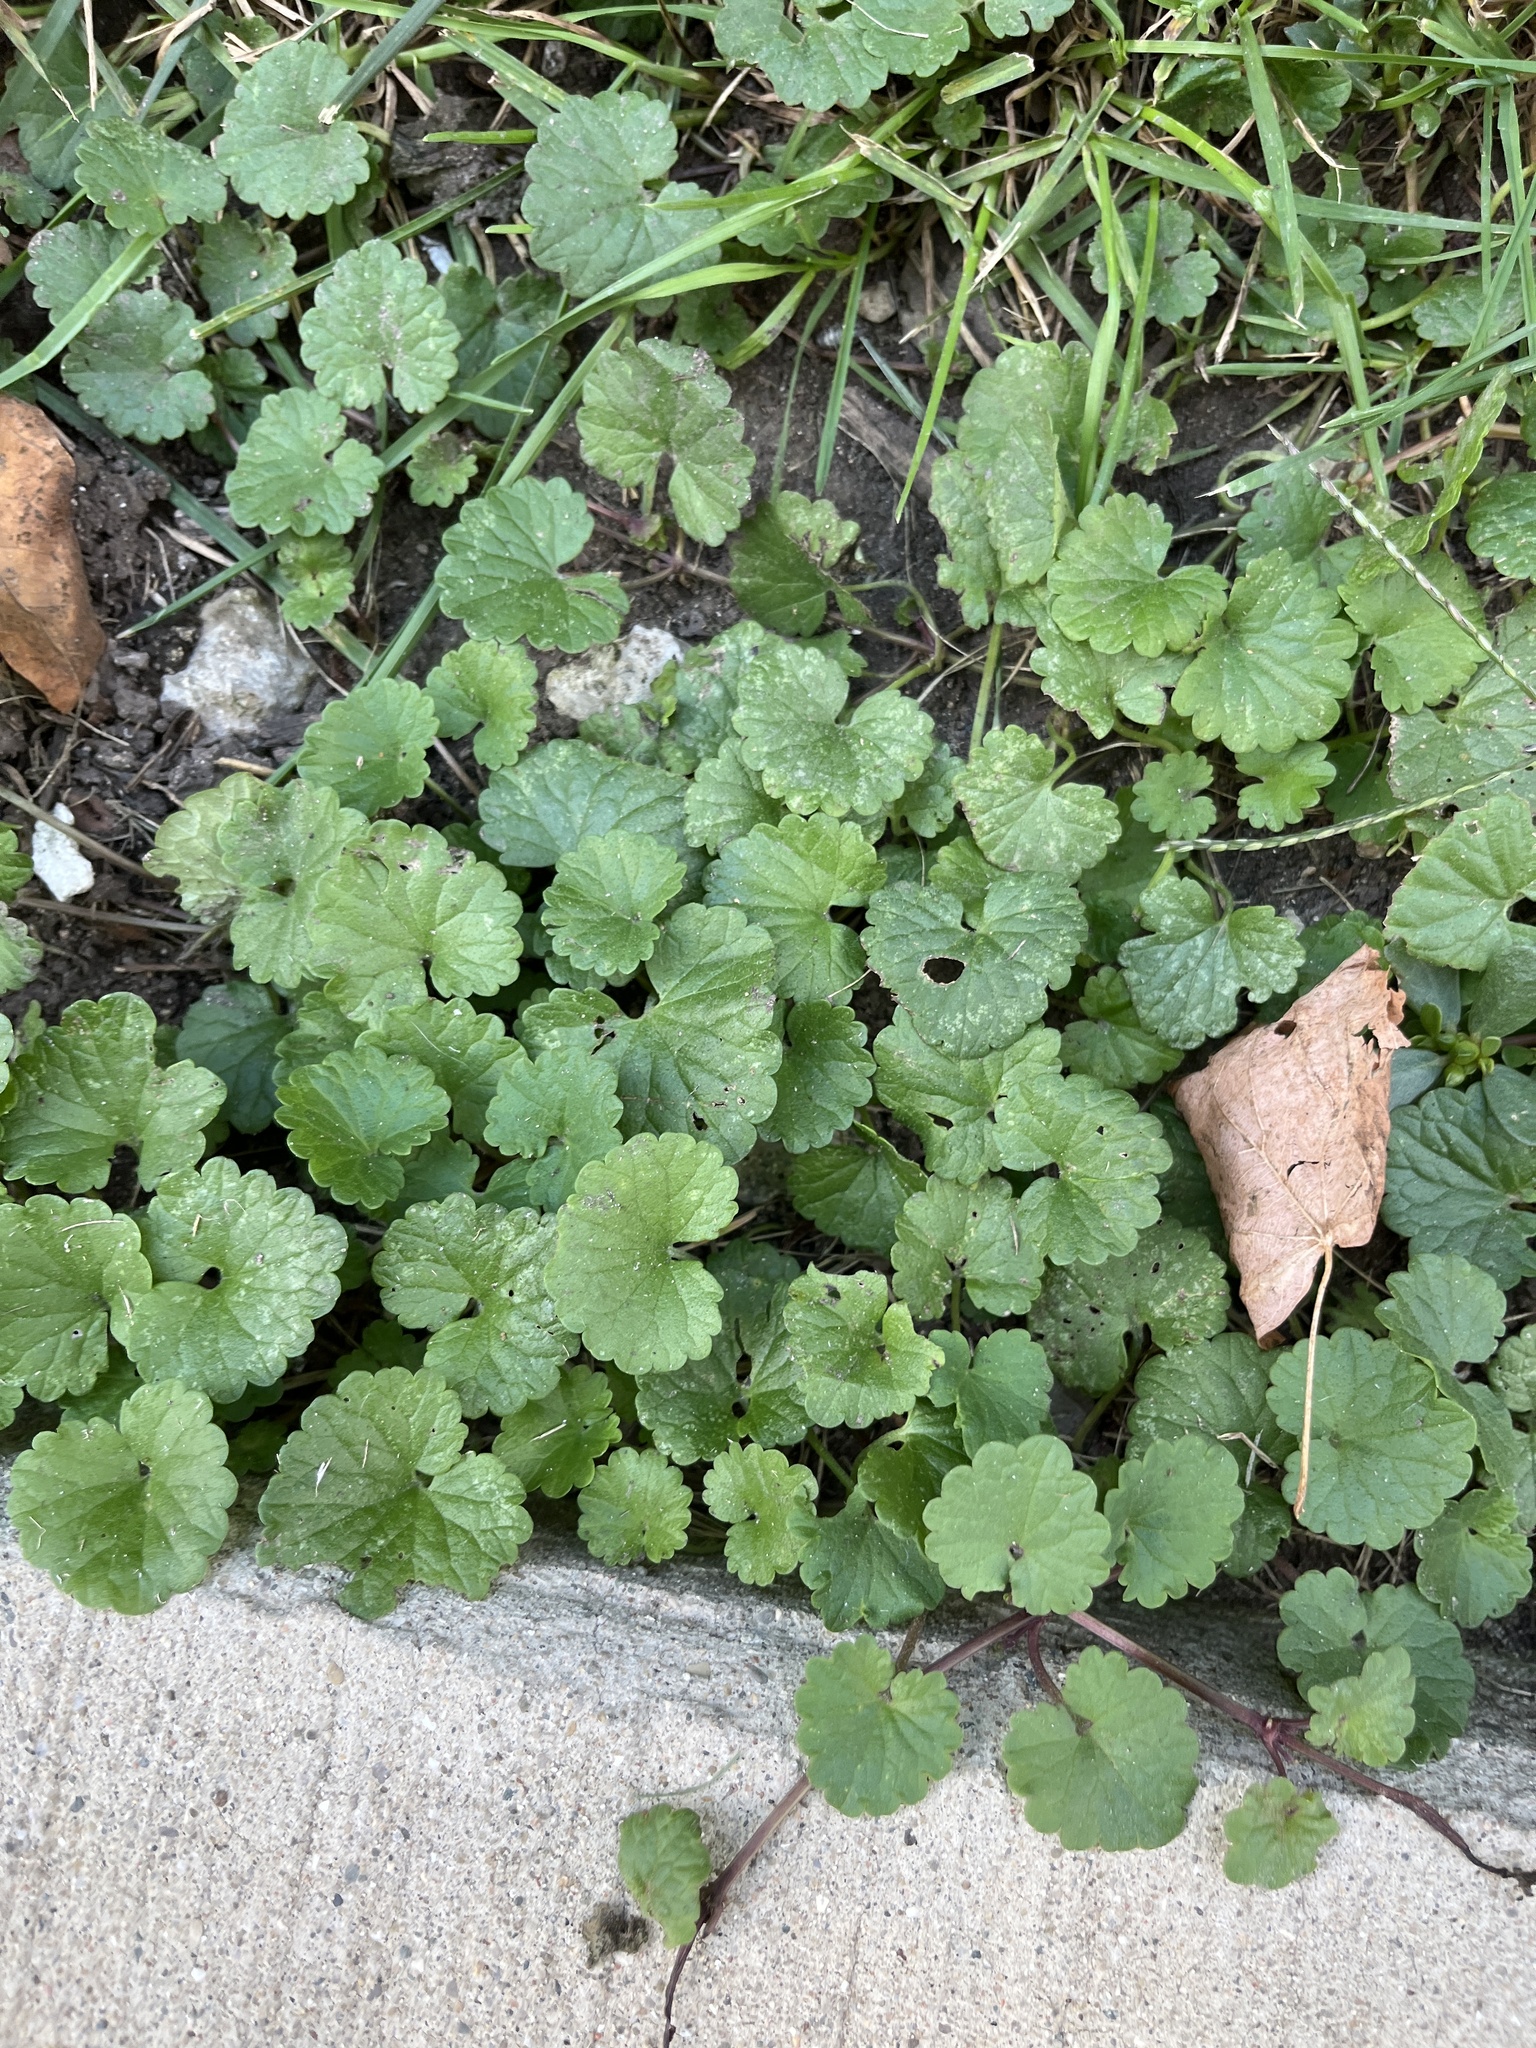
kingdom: Plantae
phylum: Tracheophyta
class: Magnoliopsida
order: Lamiales
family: Lamiaceae
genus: Glechoma
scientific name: Glechoma hederacea
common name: Ground ivy
